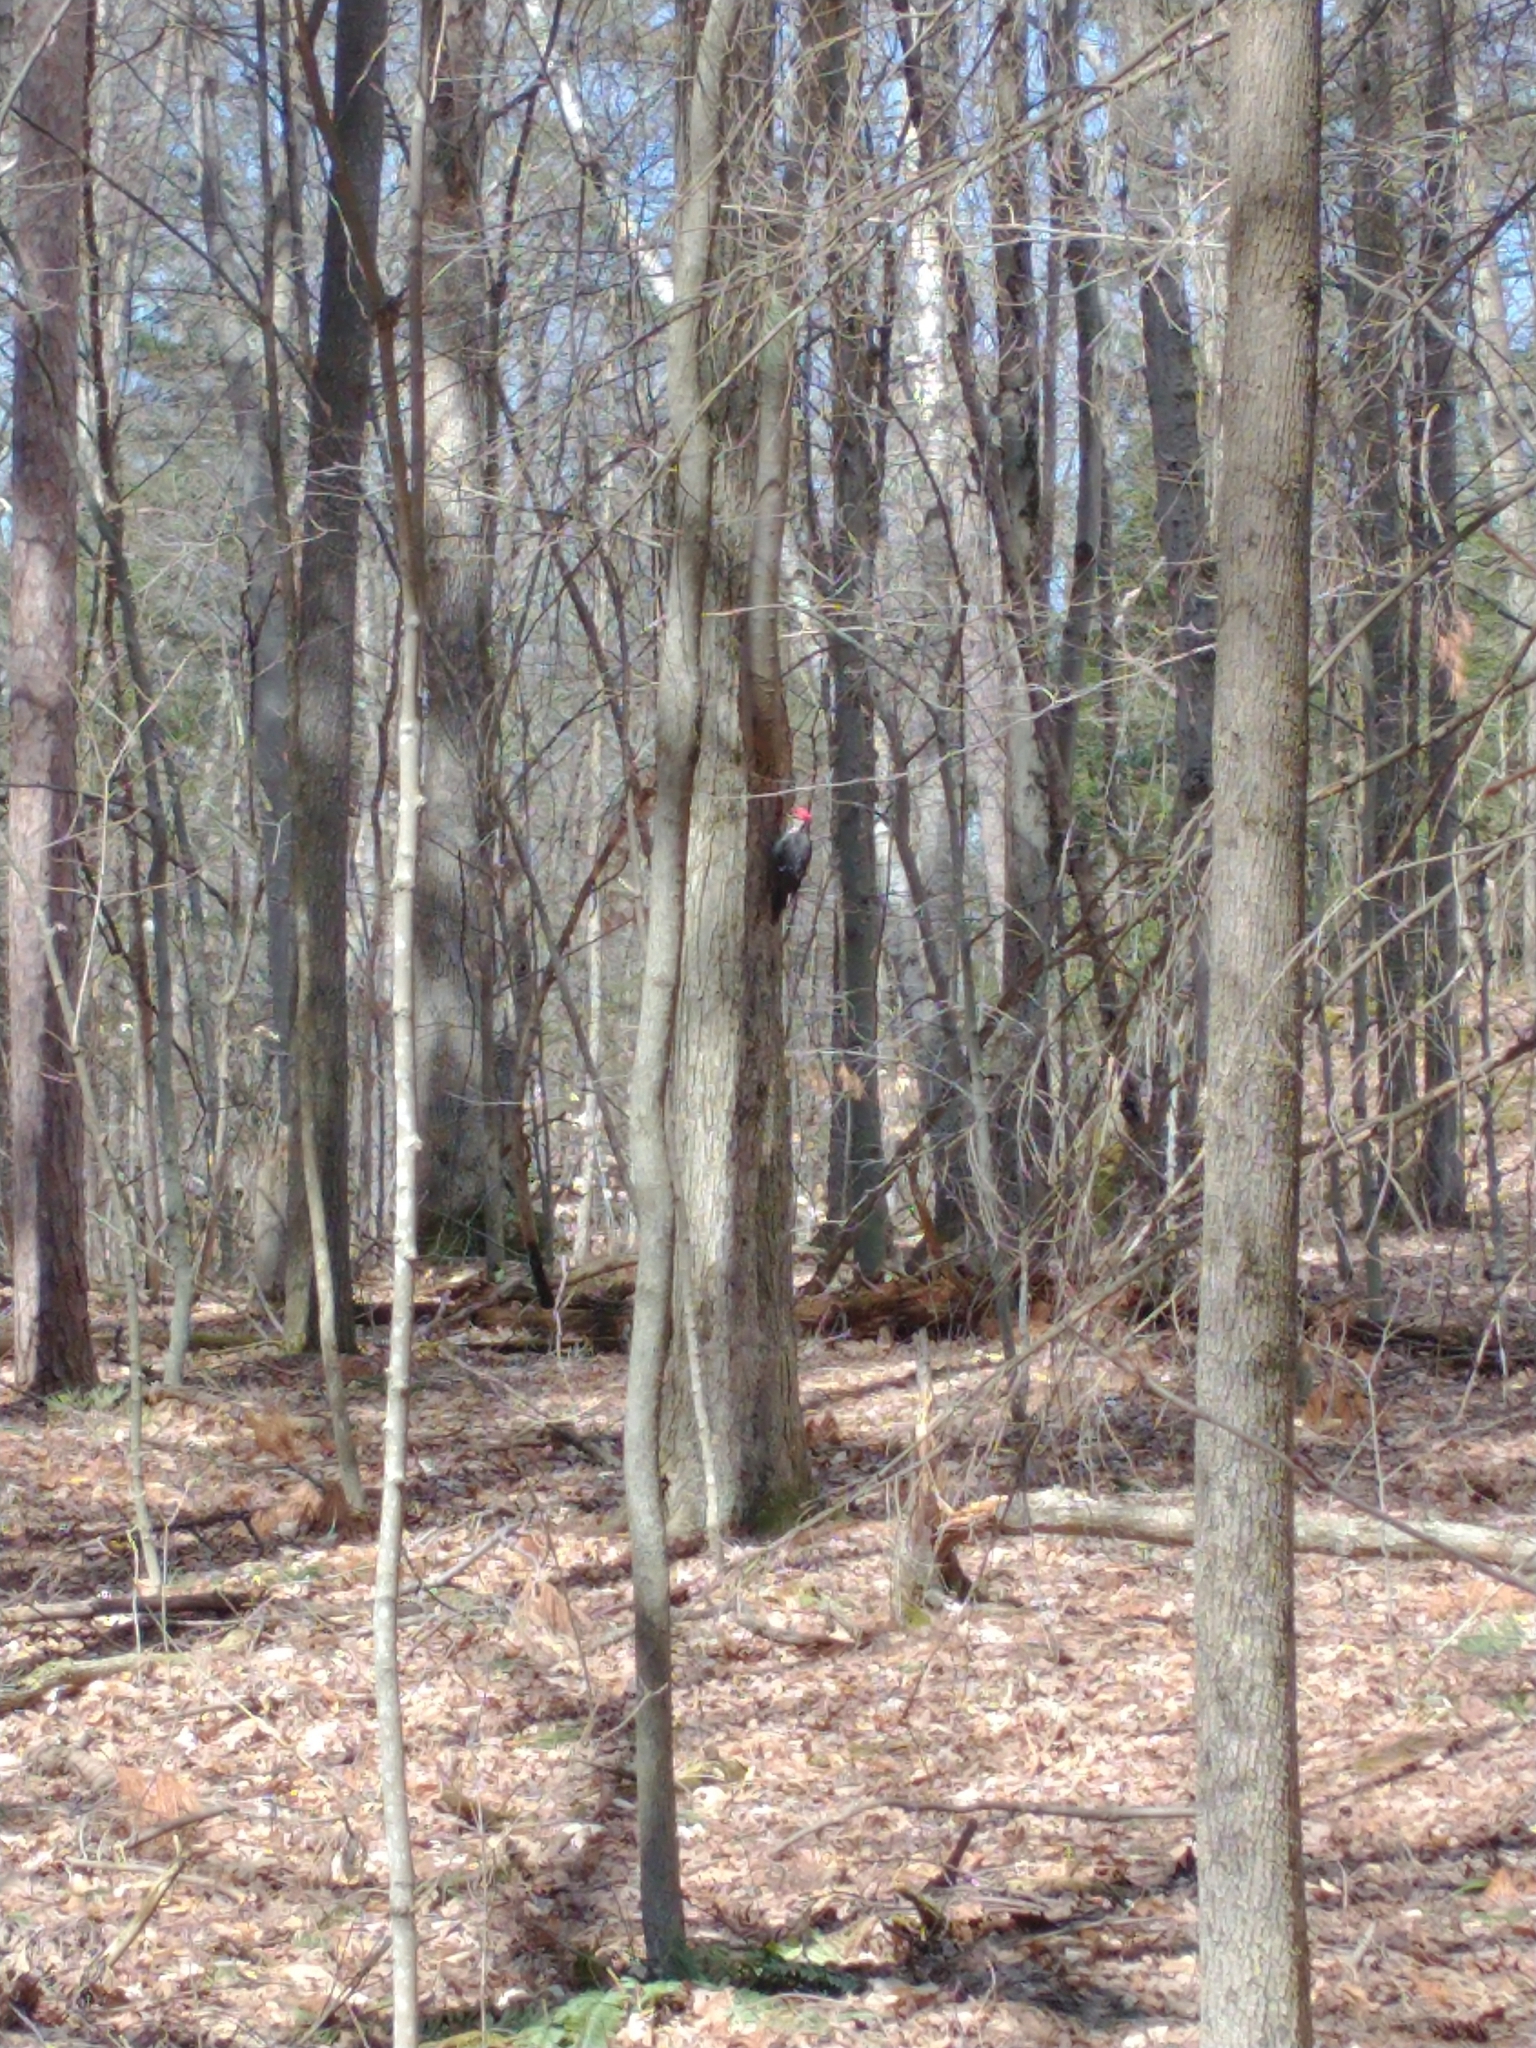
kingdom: Animalia
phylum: Chordata
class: Aves
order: Piciformes
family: Picidae
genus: Dryocopus
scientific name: Dryocopus pileatus
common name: Pileated woodpecker
